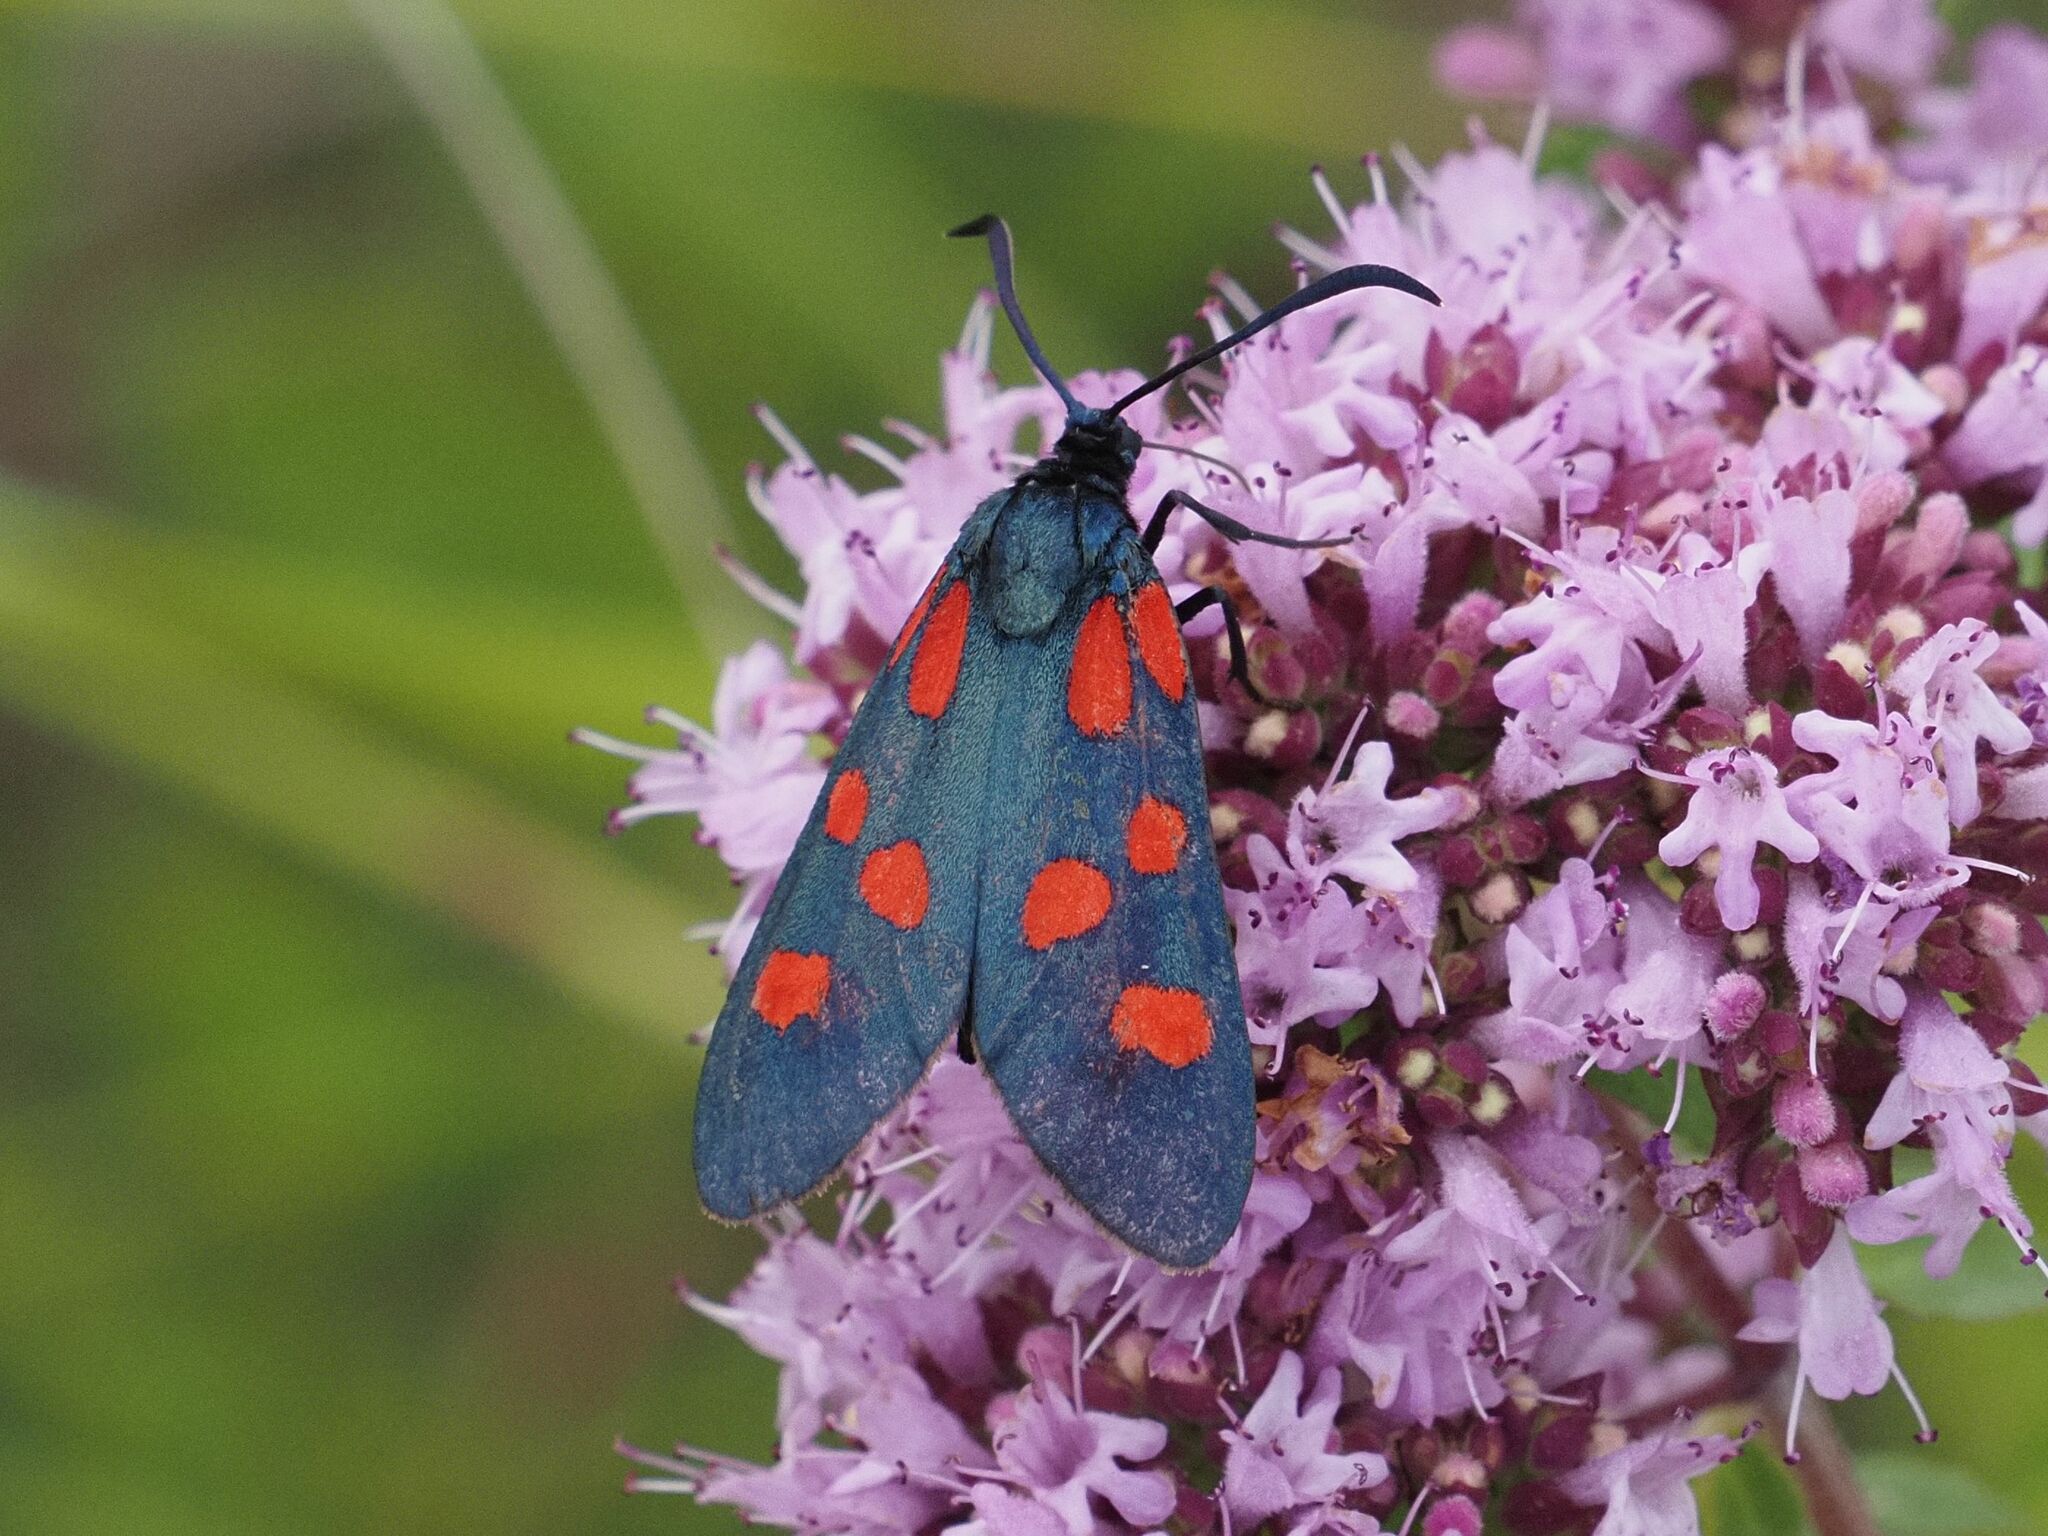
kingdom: Animalia
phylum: Arthropoda
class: Insecta
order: Lepidoptera
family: Zygaenidae
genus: Zygaena
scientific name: Zygaena angelicae
